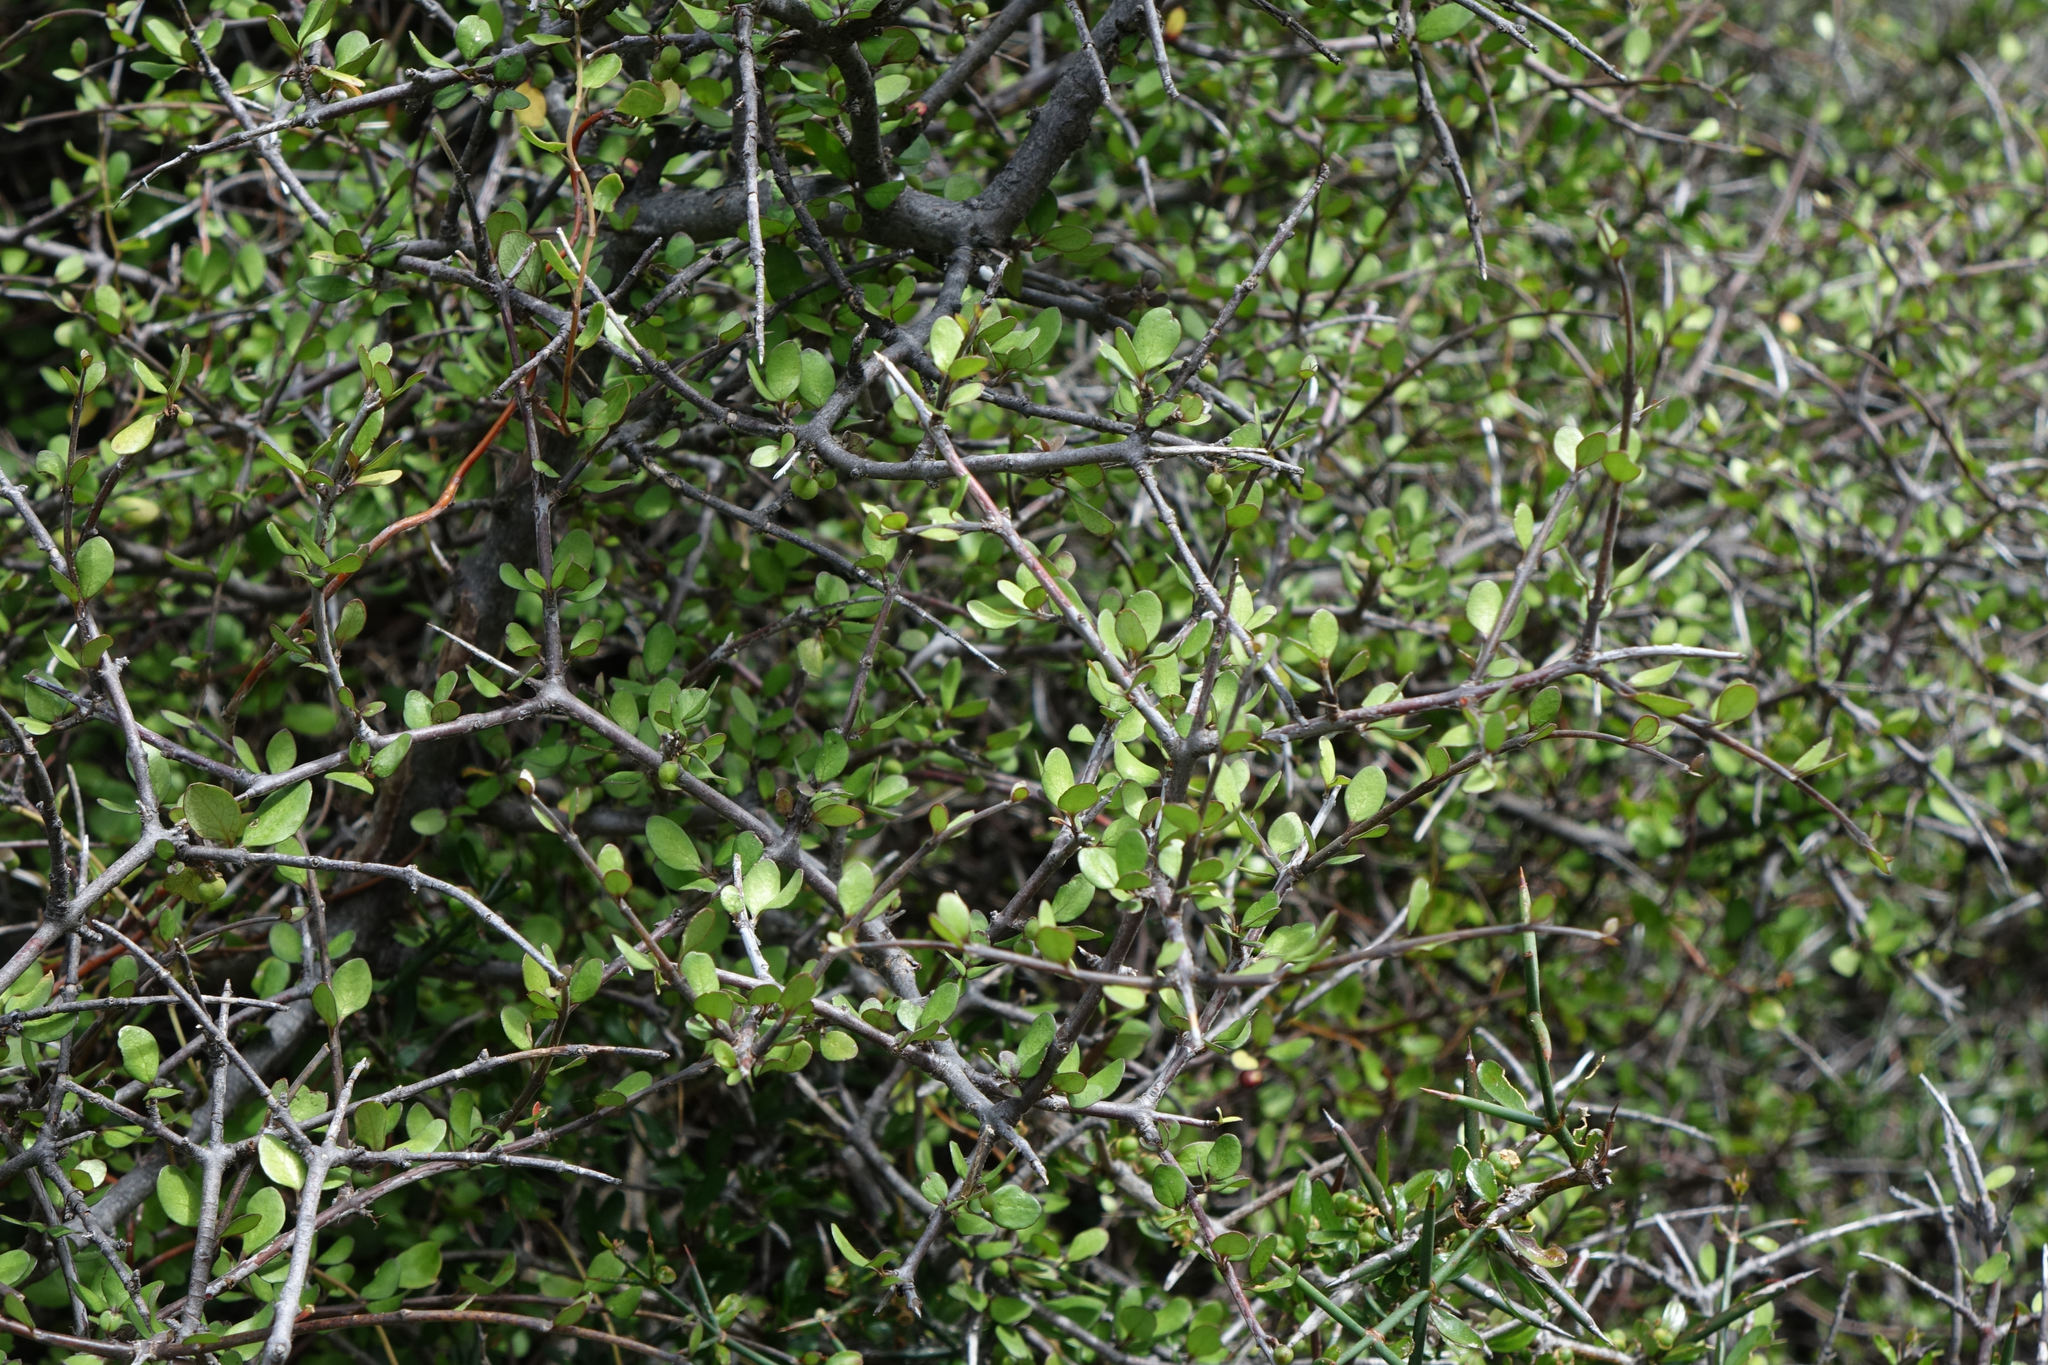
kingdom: Plantae
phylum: Tracheophyta
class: Magnoliopsida
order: Oxalidales
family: Elaeocarpaceae
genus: Aristotelia
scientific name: Aristotelia fruticosa
